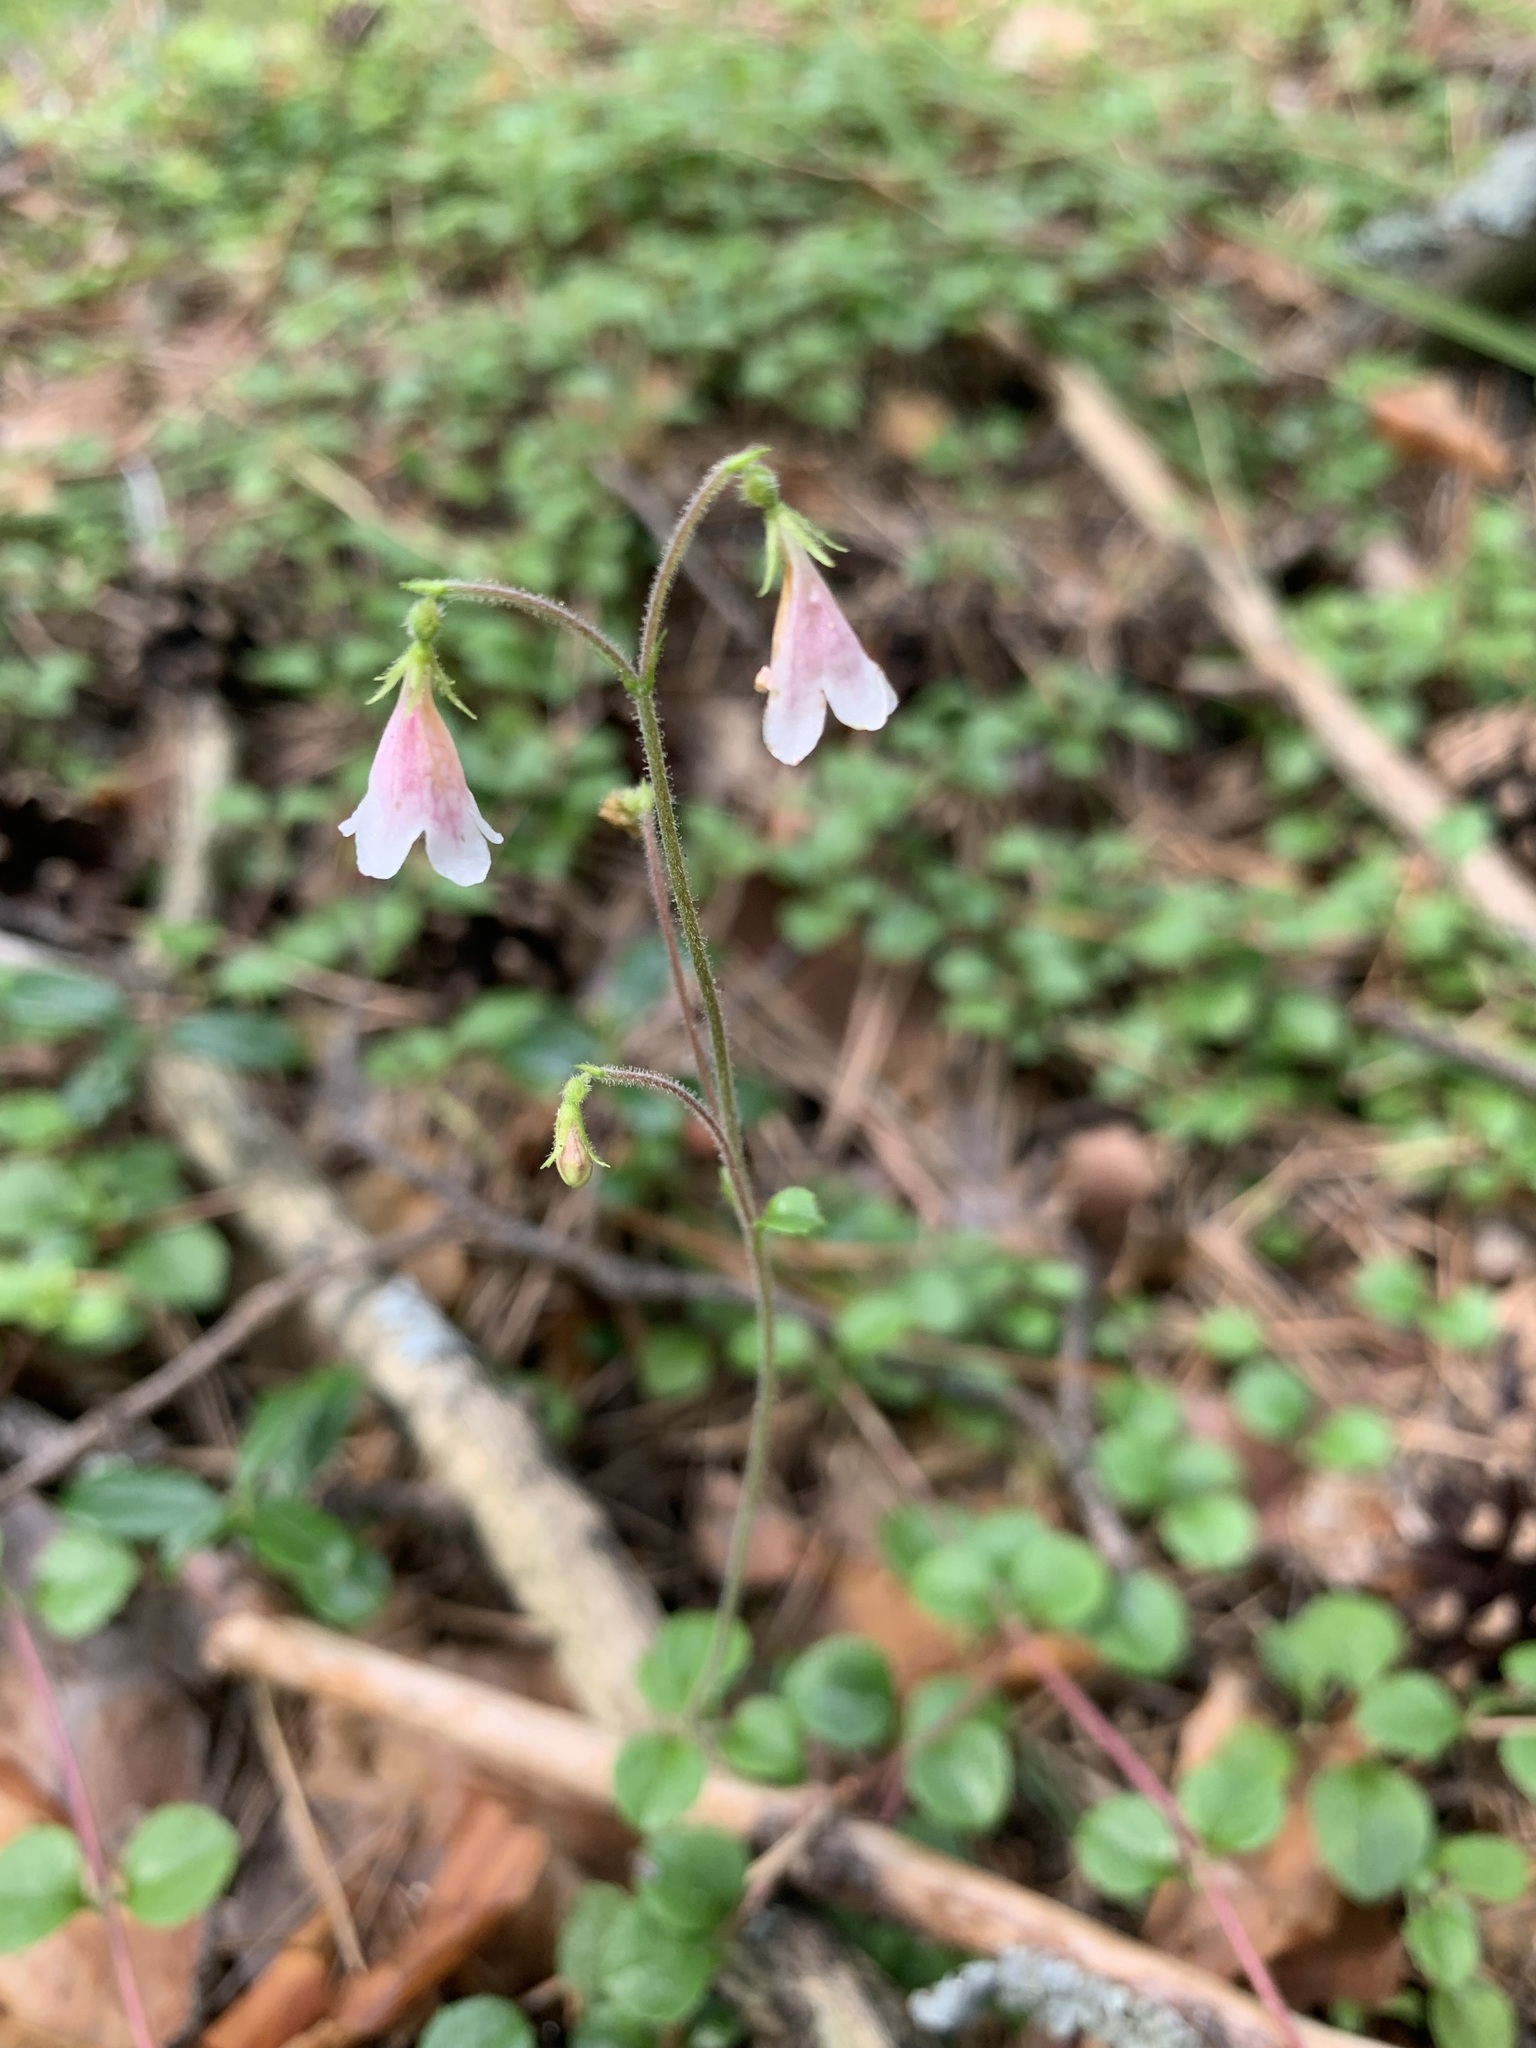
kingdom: Plantae
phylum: Tracheophyta
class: Magnoliopsida
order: Dipsacales
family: Caprifoliaceae
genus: Linnaea
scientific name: Linnaea borealis
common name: Twinflower
